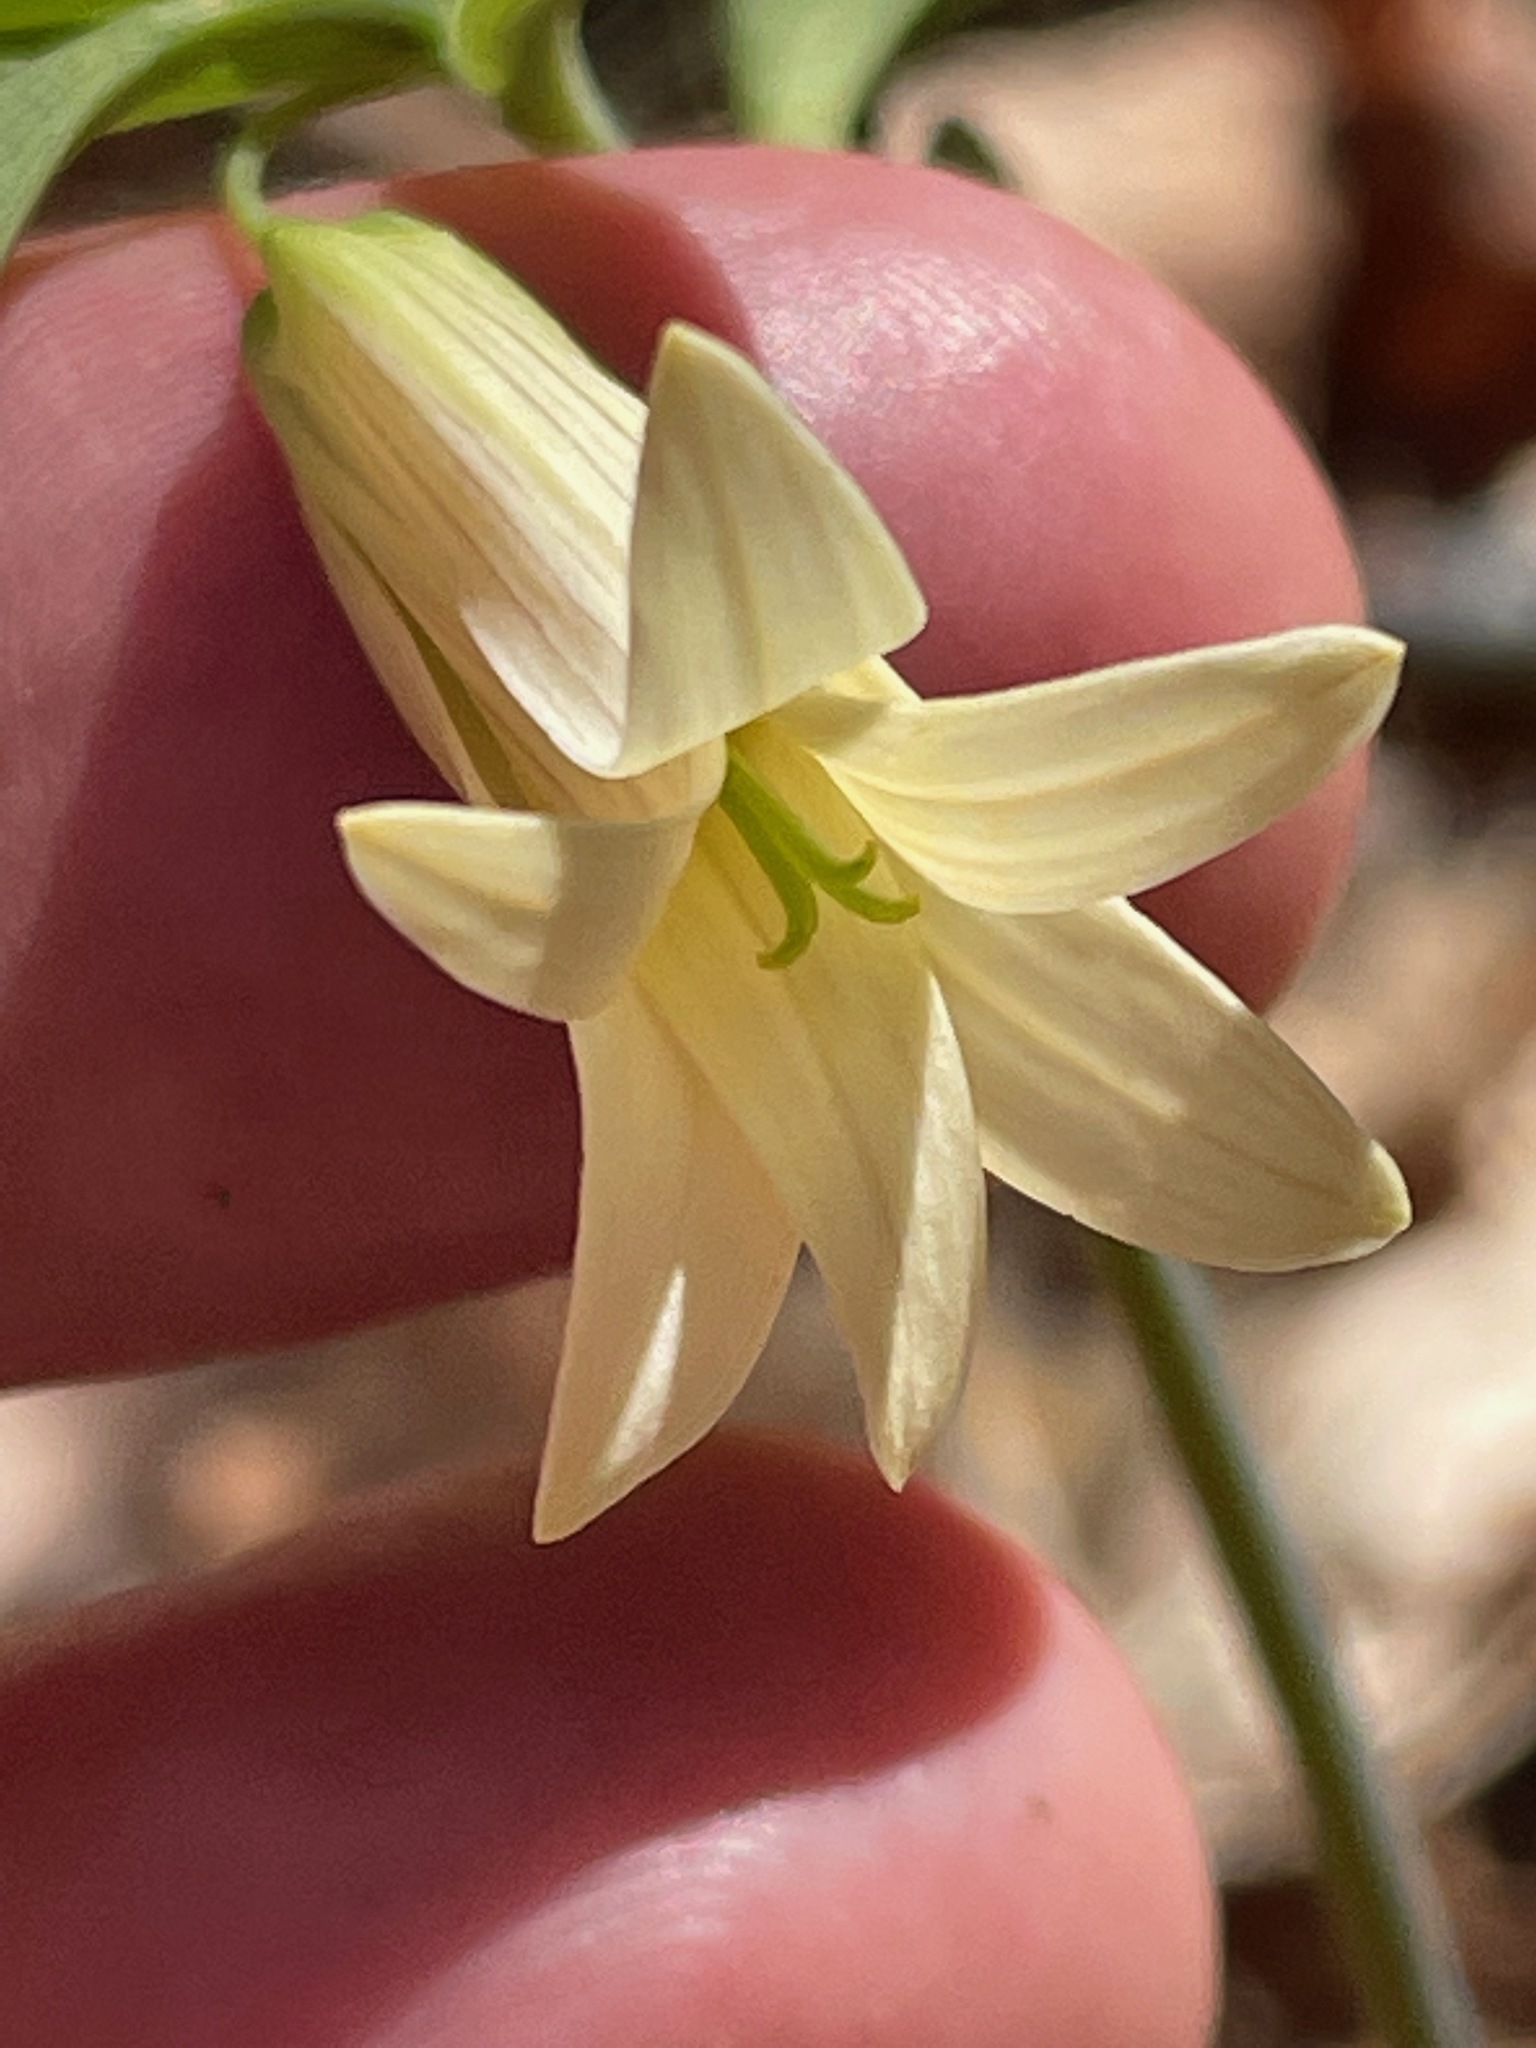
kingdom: Plantae
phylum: Tracheophyta
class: Liliopsida
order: Liliales
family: Colchicaceae
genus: Uvularia
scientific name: Uvularia sessilifolia
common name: Straw-lily
